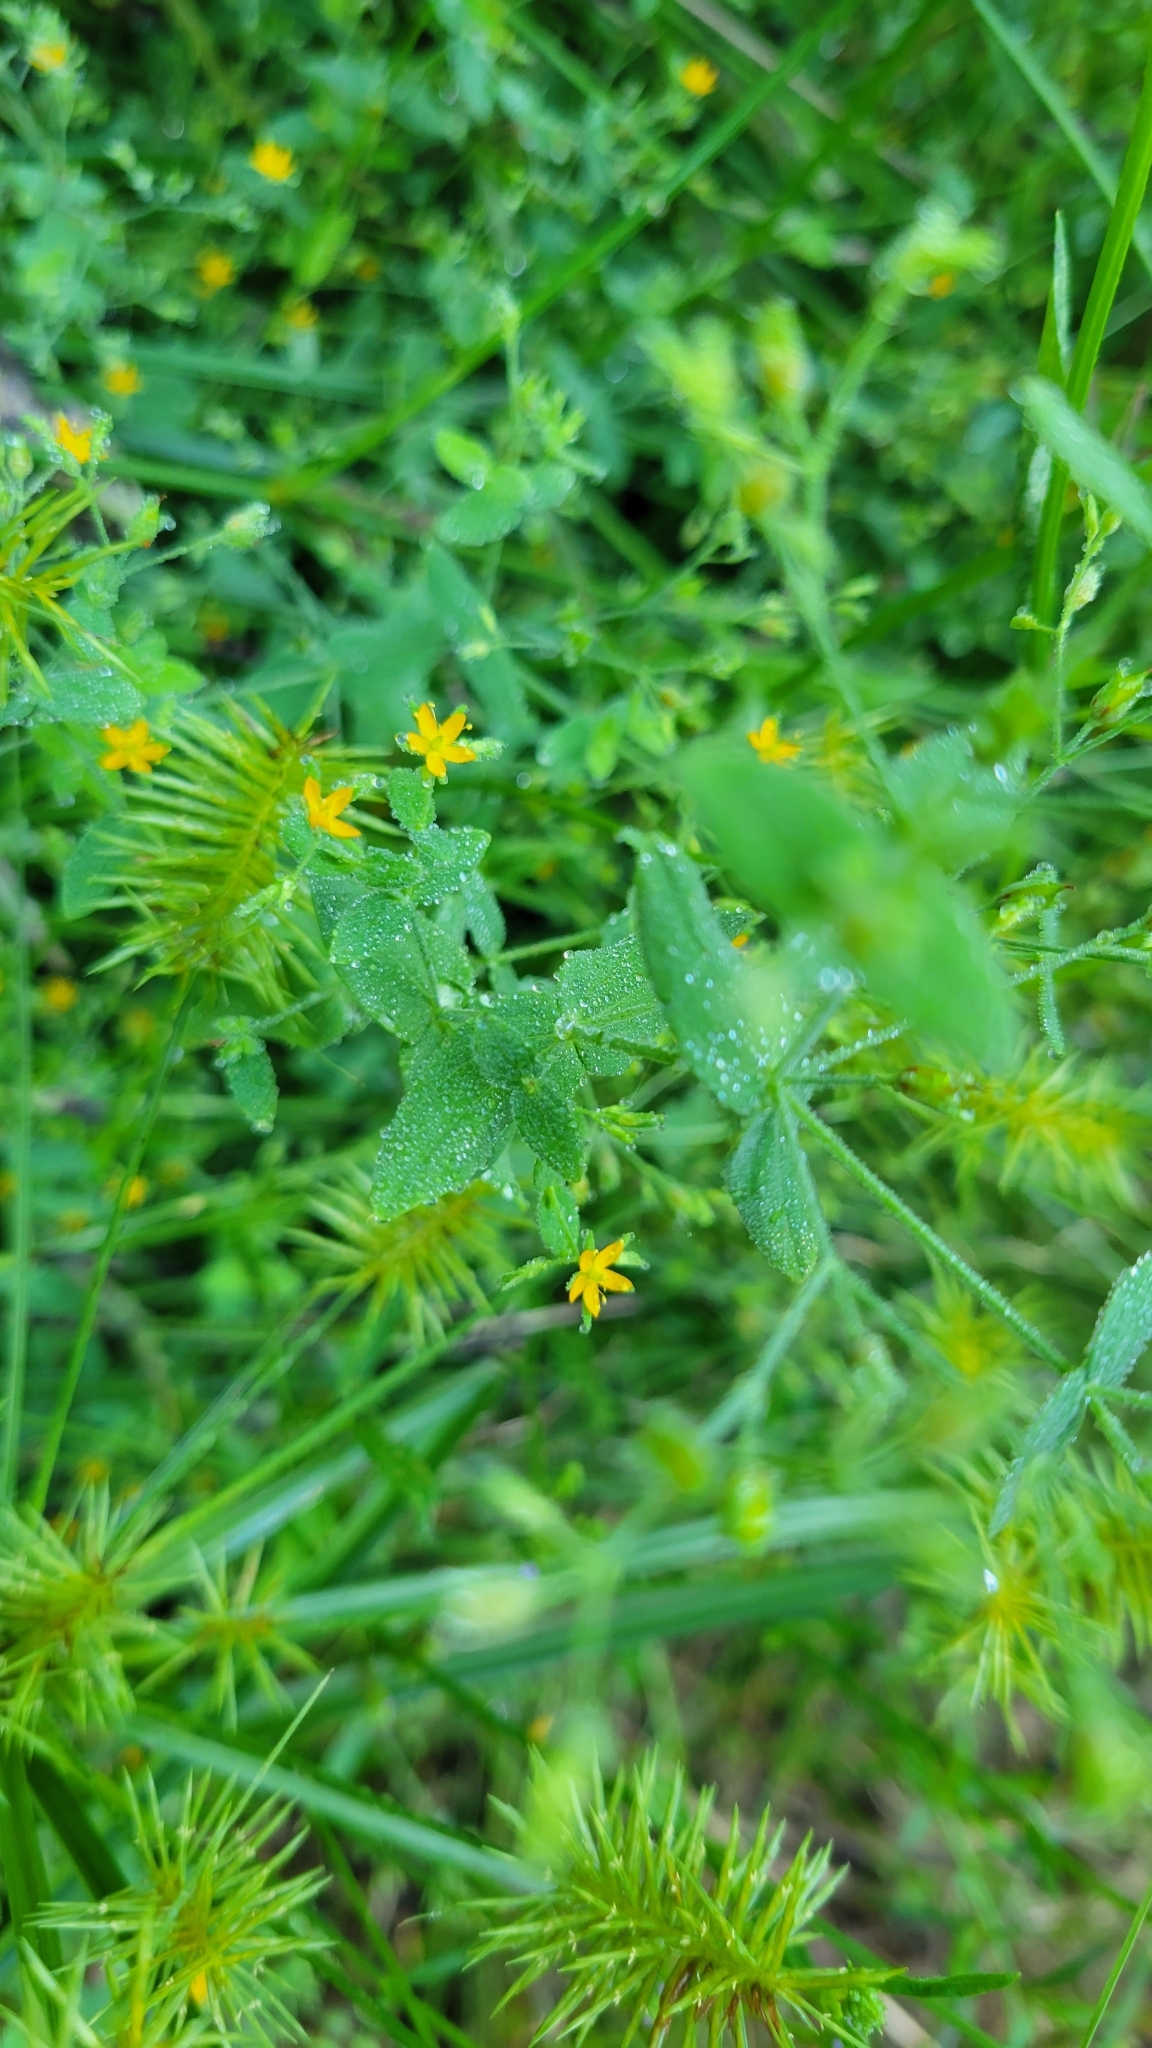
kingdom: Plantae
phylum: Tracheophyta
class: Magnoliopsida
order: Malpighiales
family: Hypericaceae
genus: Hypericum
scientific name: Hypericum mutilum
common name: Dwarf st. john's-wort
